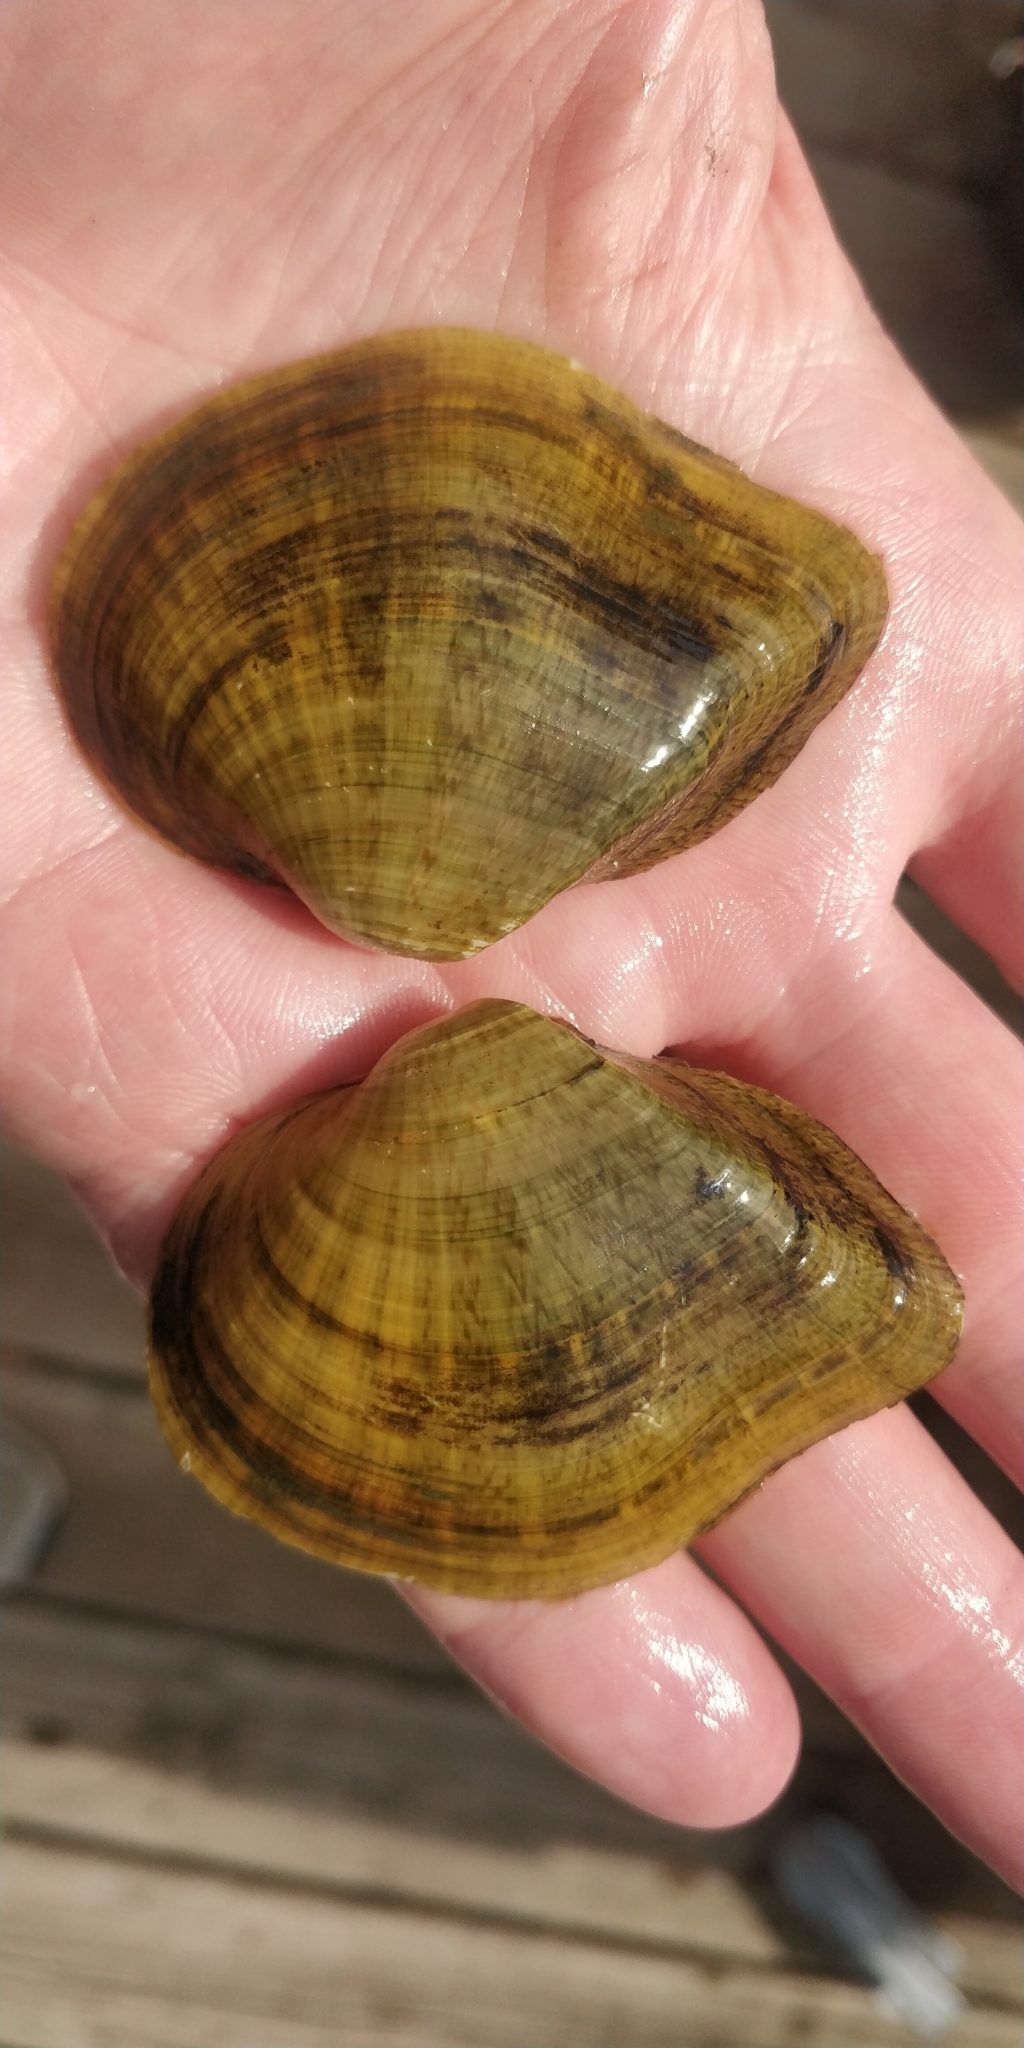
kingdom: Animalia
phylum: Mollusca
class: Bivalvia
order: Unionida
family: Unionidae
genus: Truncilla
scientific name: Truncilla truncata
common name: Deertoe
